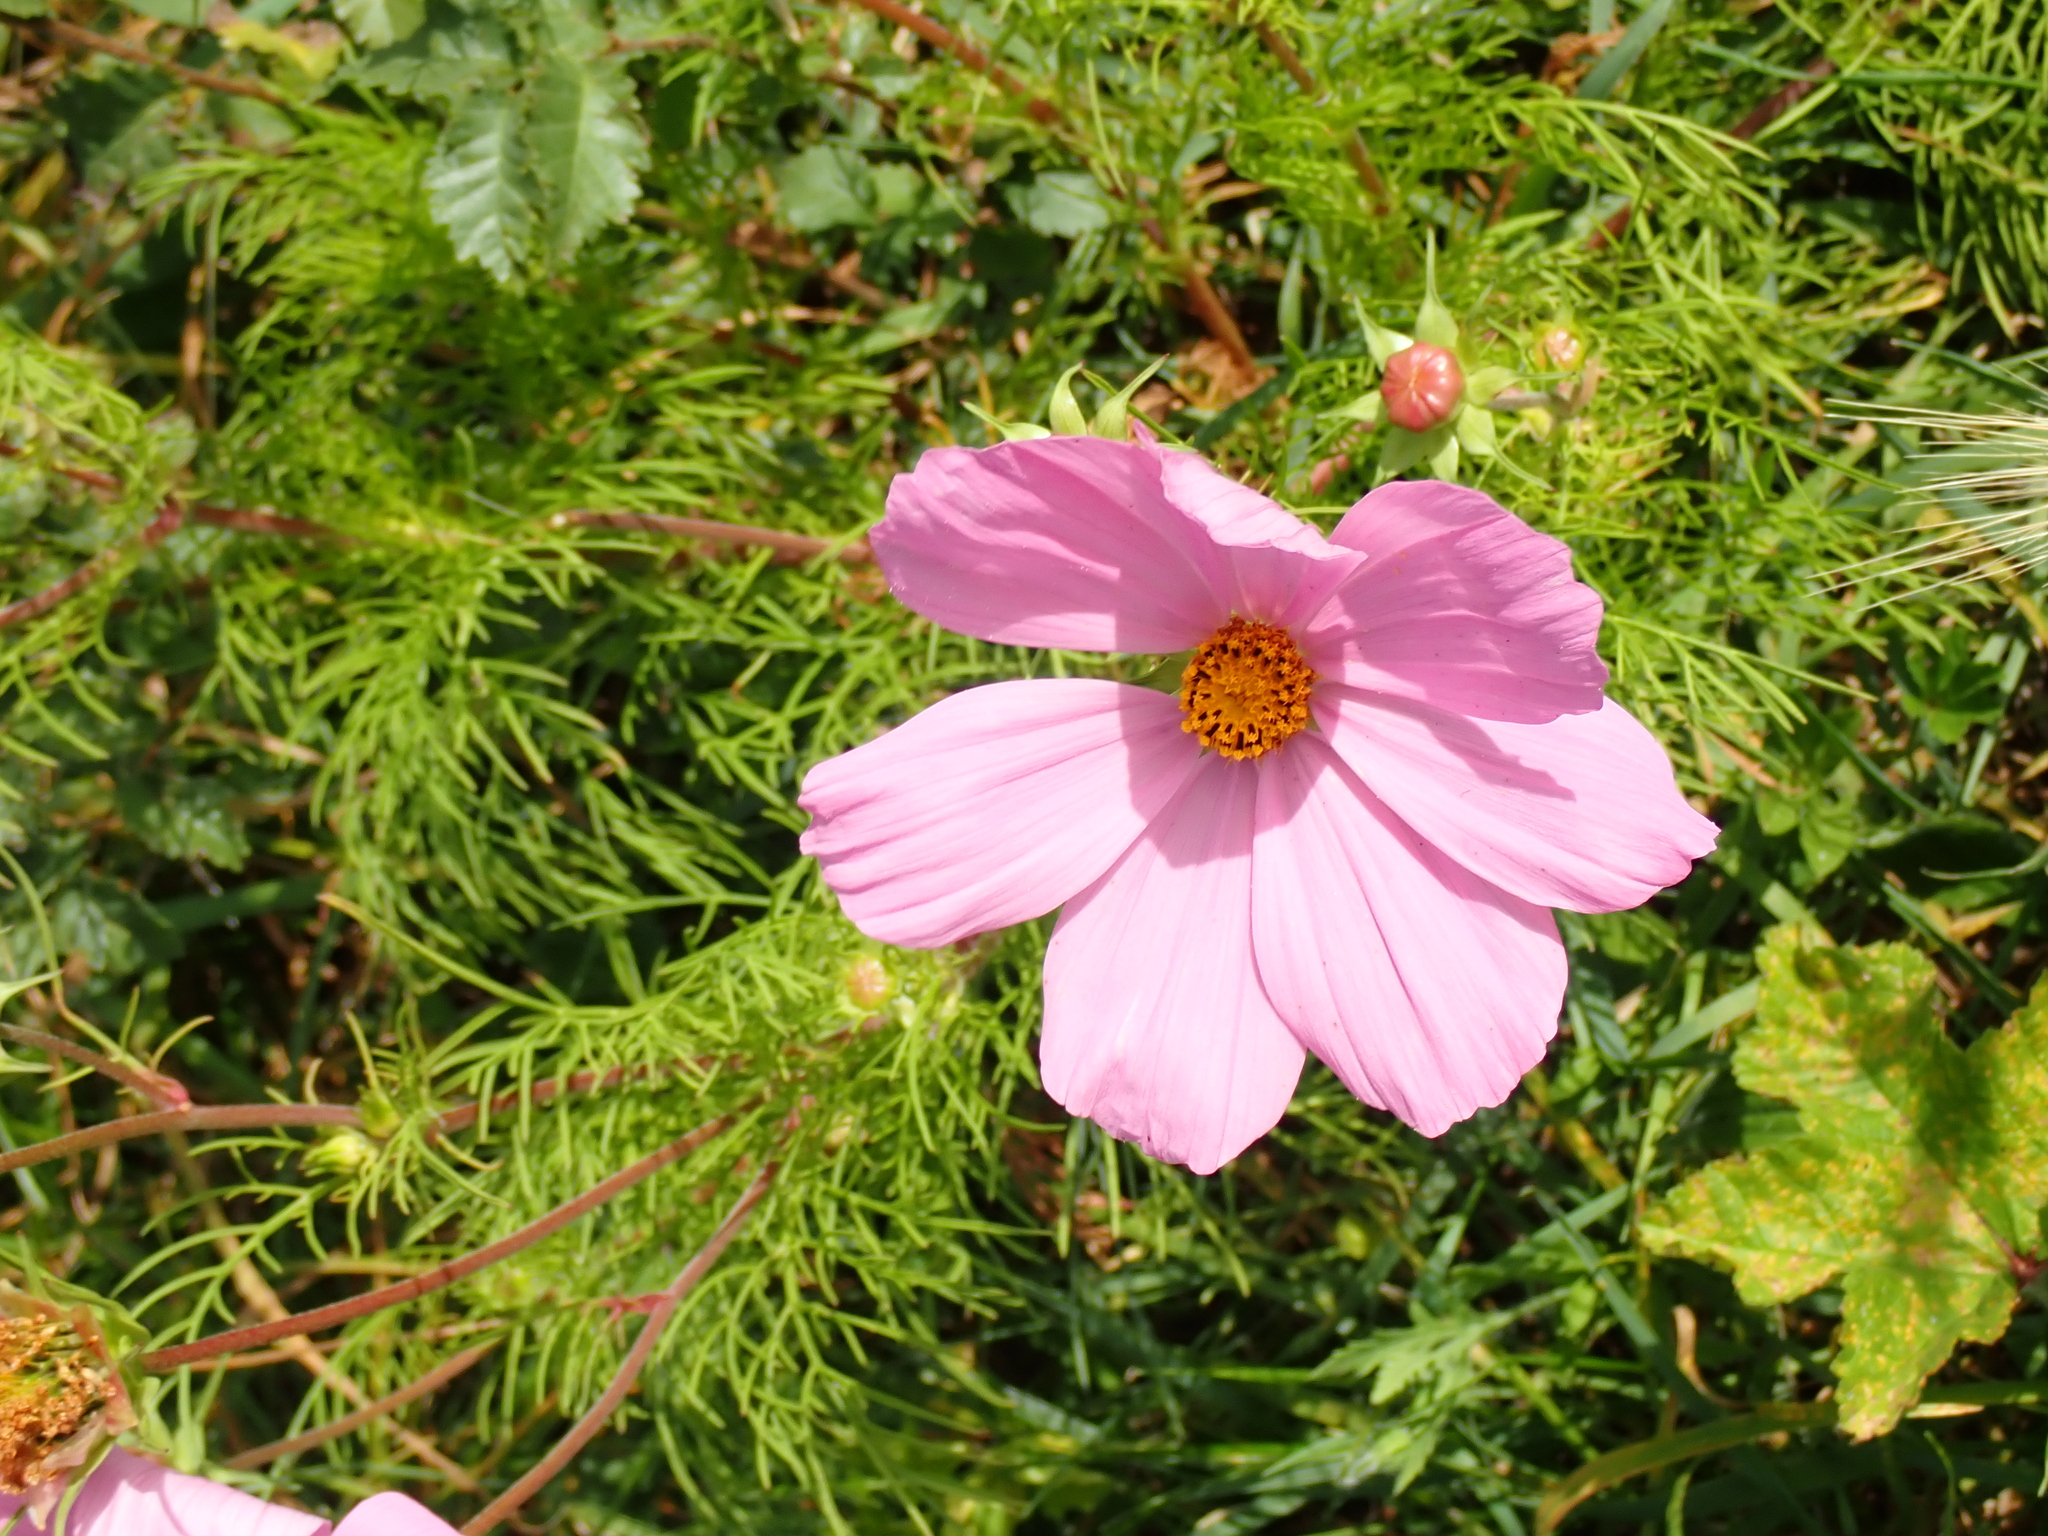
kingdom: Plantae
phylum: Tracheophyta
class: Magnoliopsida
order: Asterales
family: Asteraceae
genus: Cosmos
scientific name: Cosmos bipinnatus
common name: Garden cosmos
